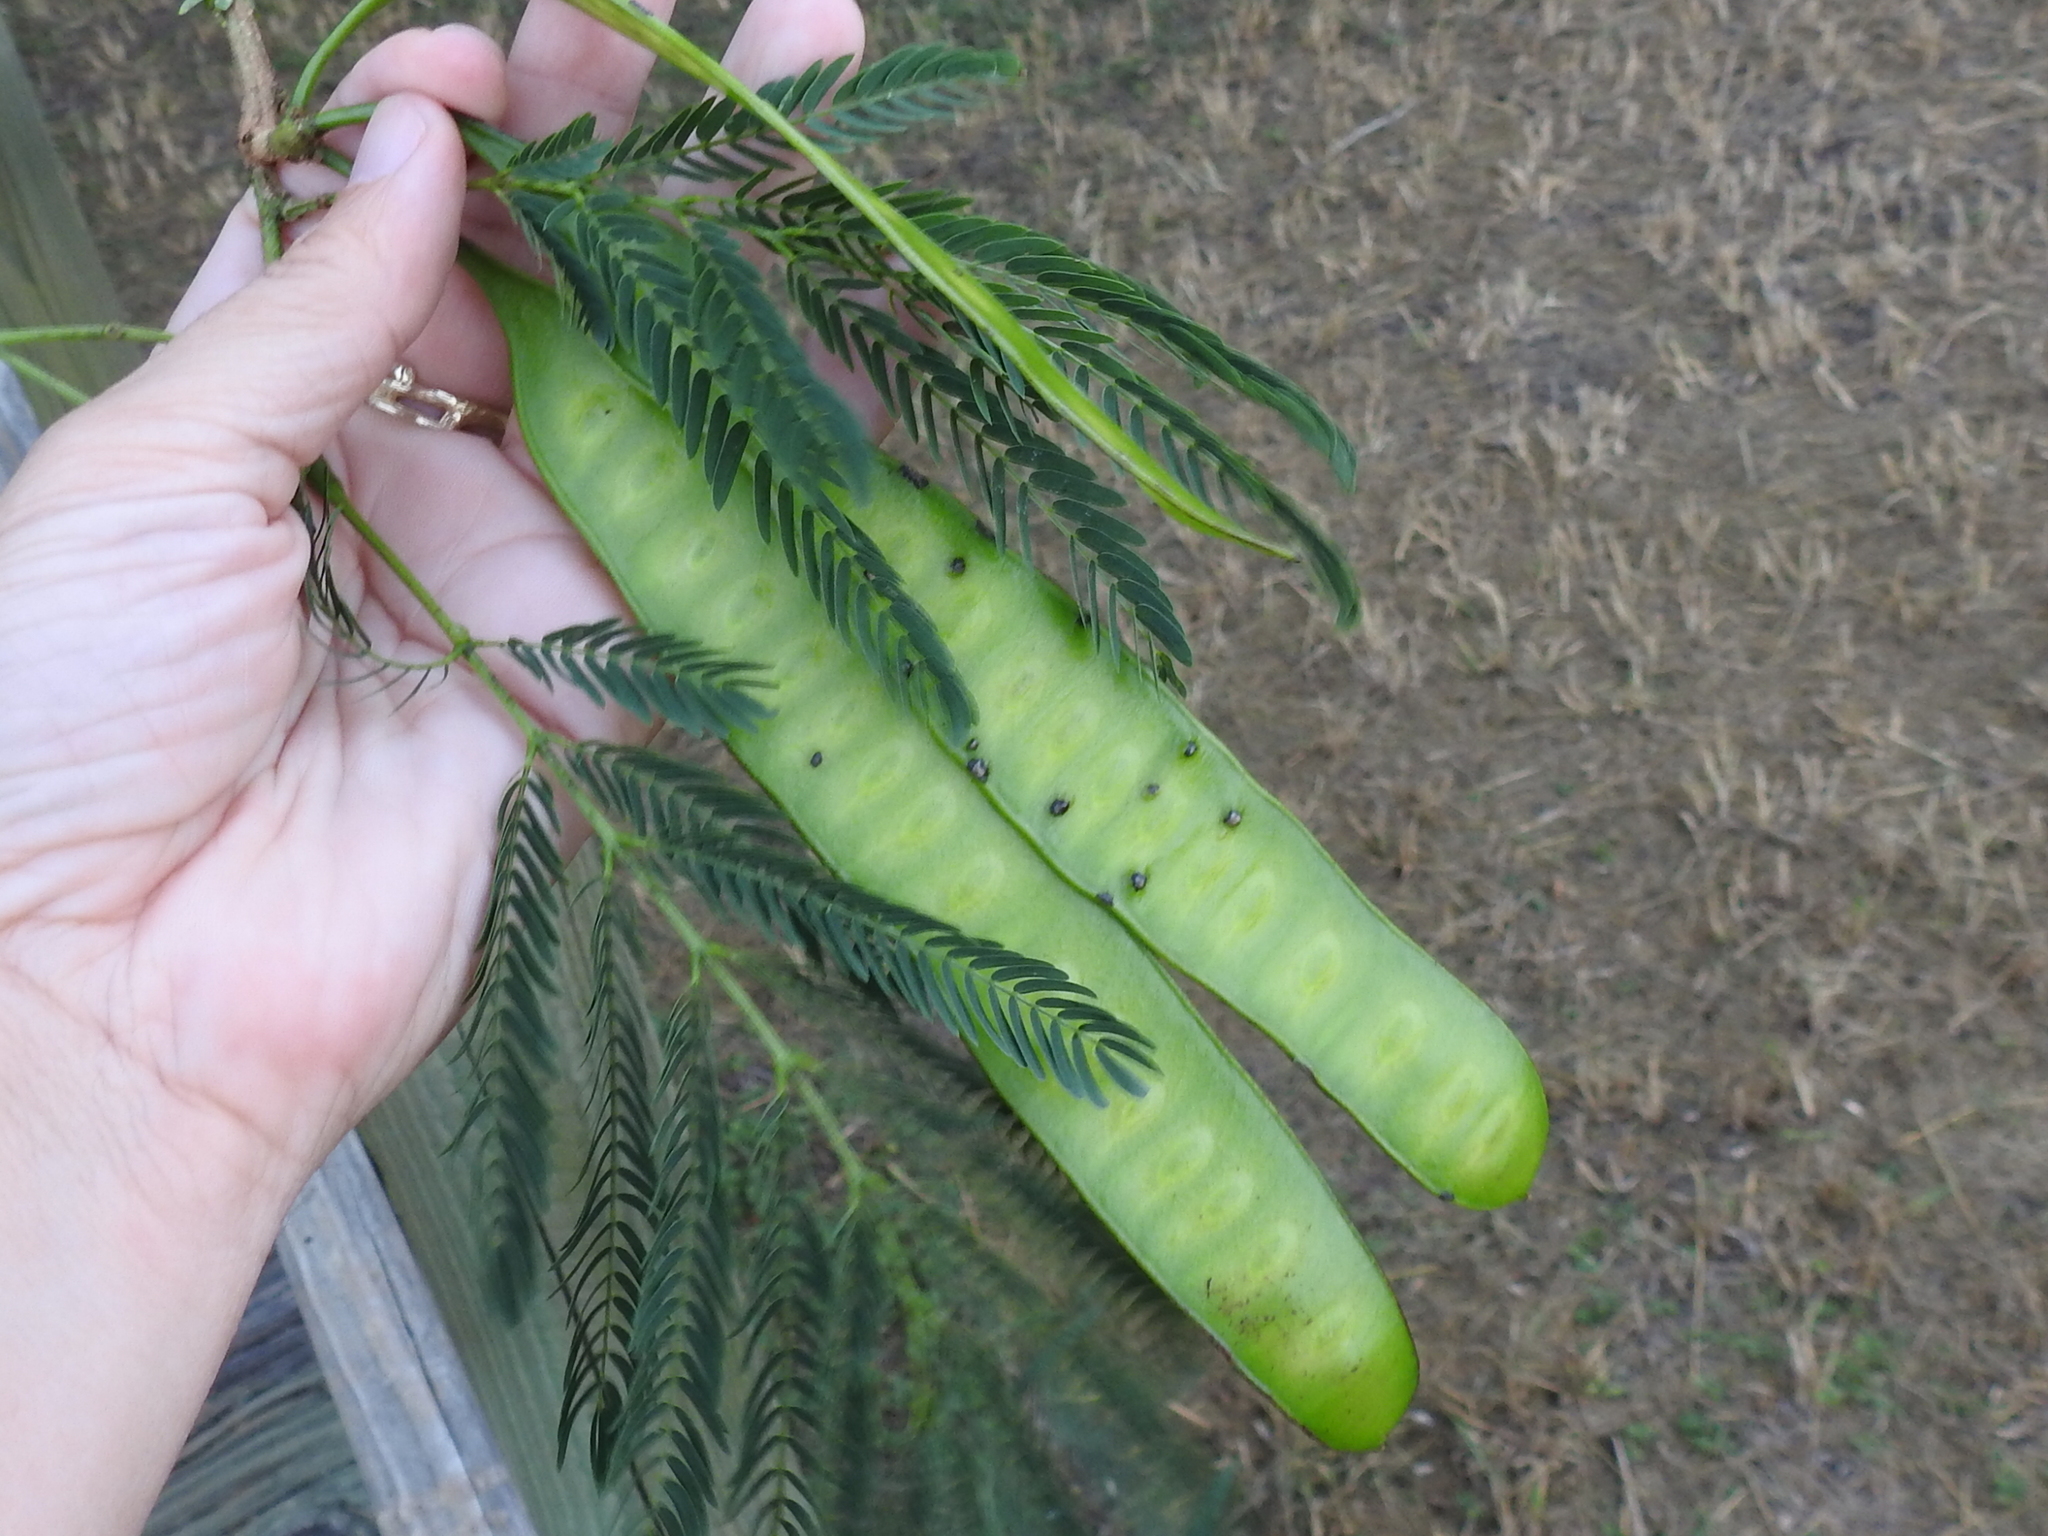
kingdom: Plantae
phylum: Tracheophyta
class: Magnoliopsida
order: Fabales
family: Fabaceae
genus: Leucaena
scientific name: Leucaena leucocephala
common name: White leadtree
